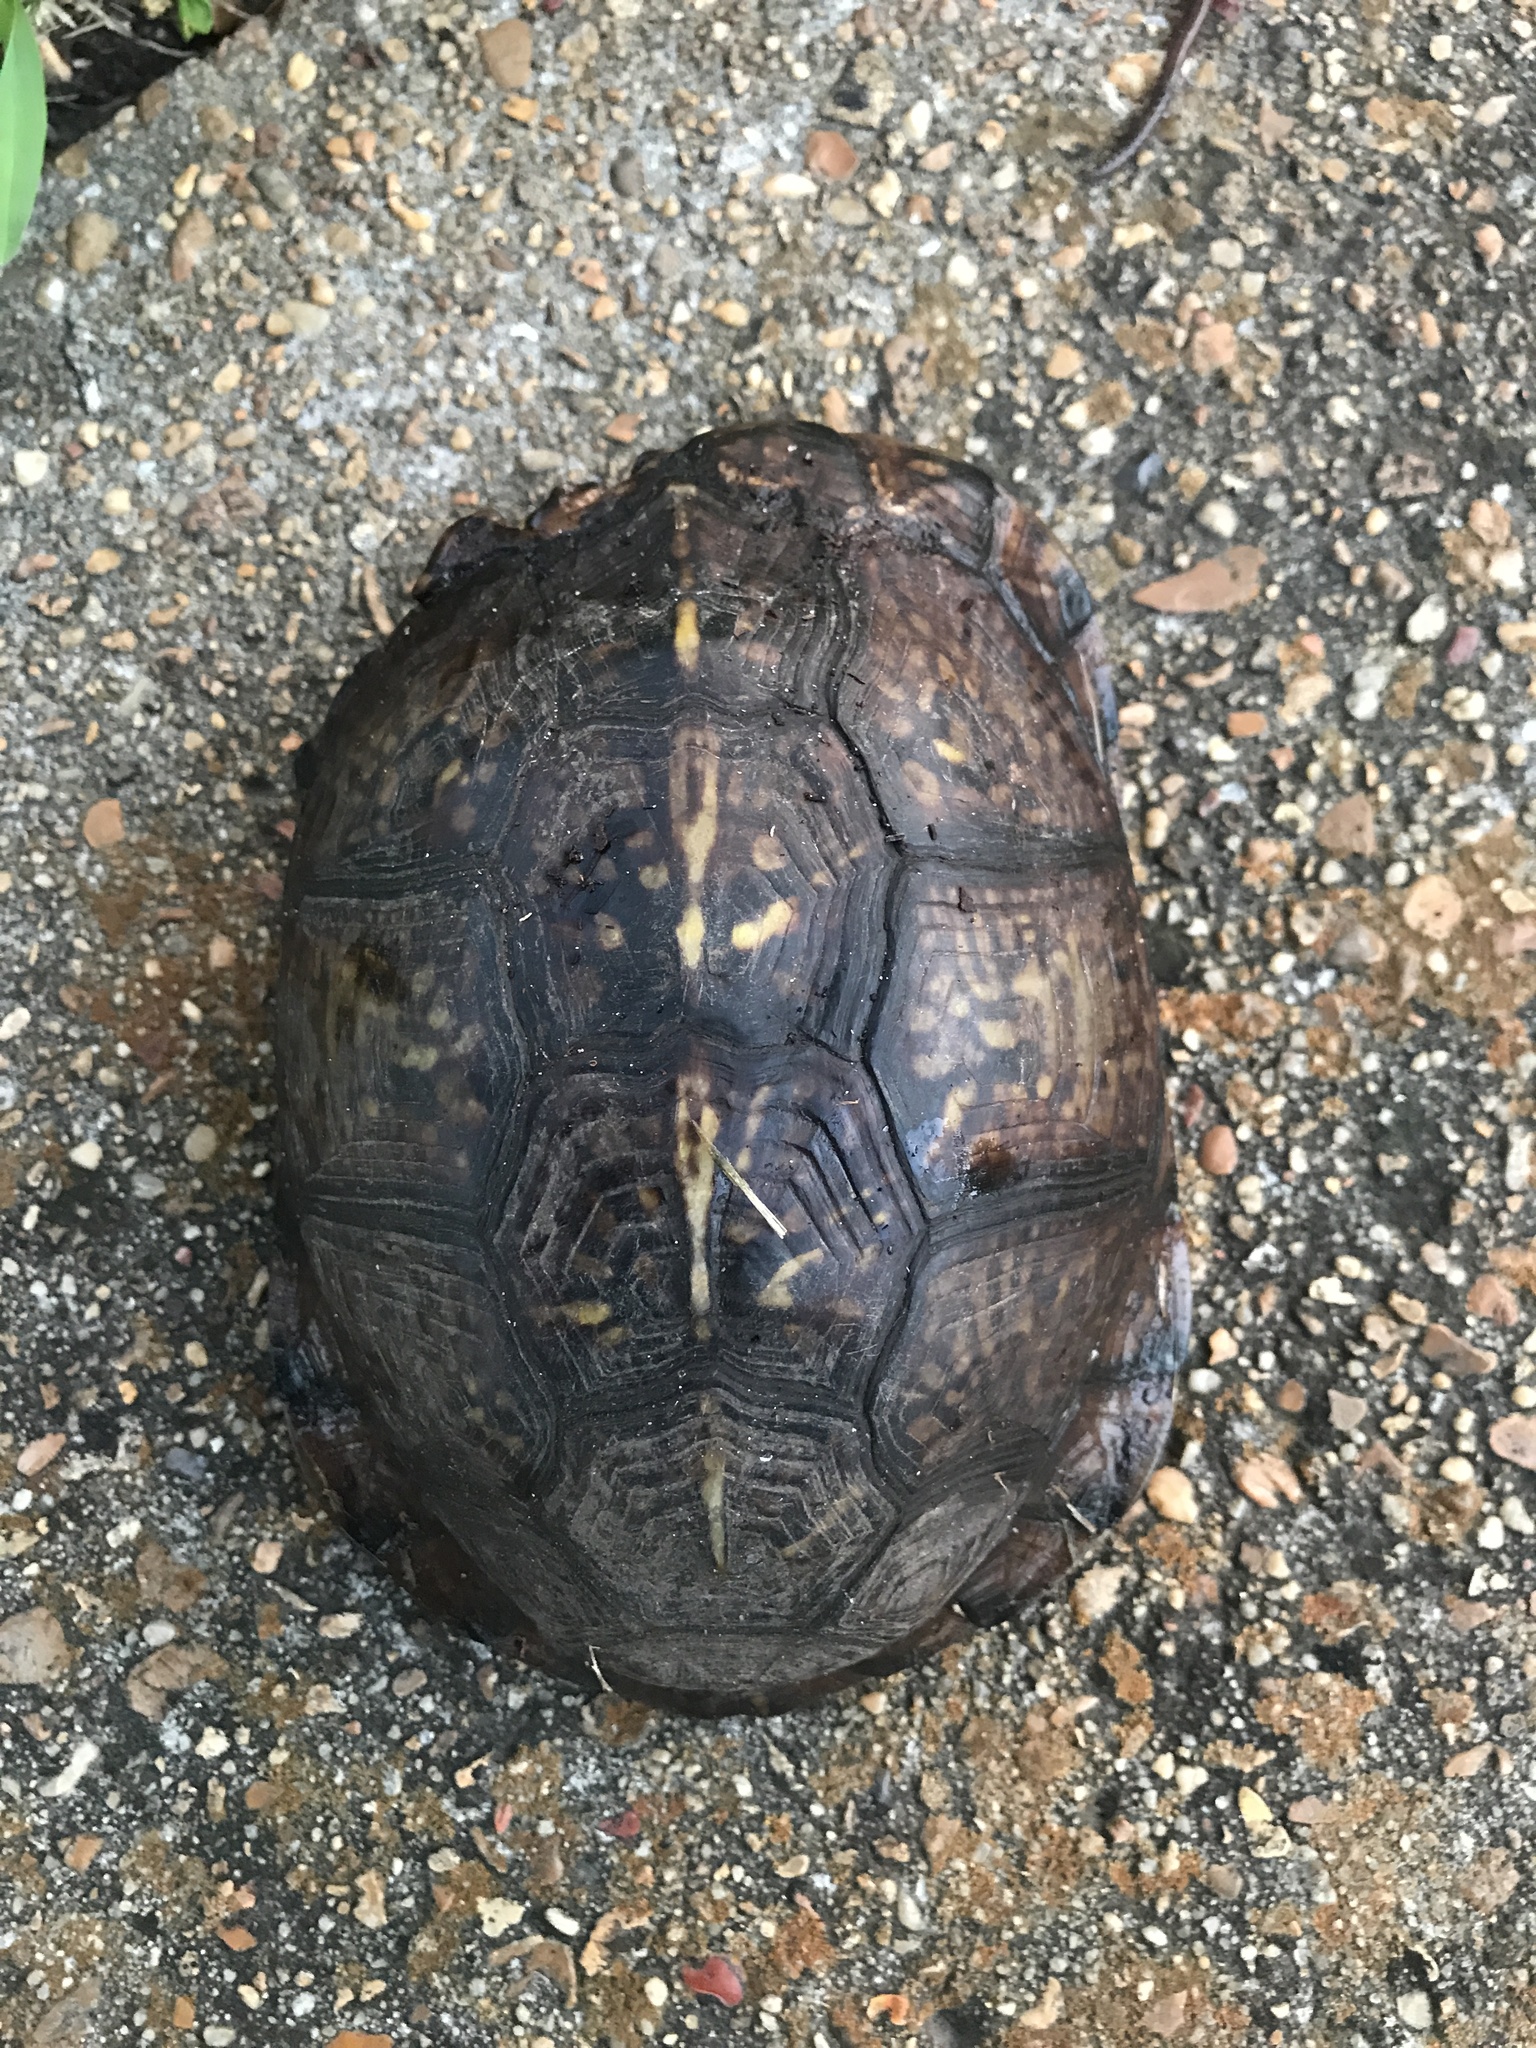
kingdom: Animalia
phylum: Chordata
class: Testudines
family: Emydidae
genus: Terrapene
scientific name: Terrapene carolina
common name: Common box turtle
